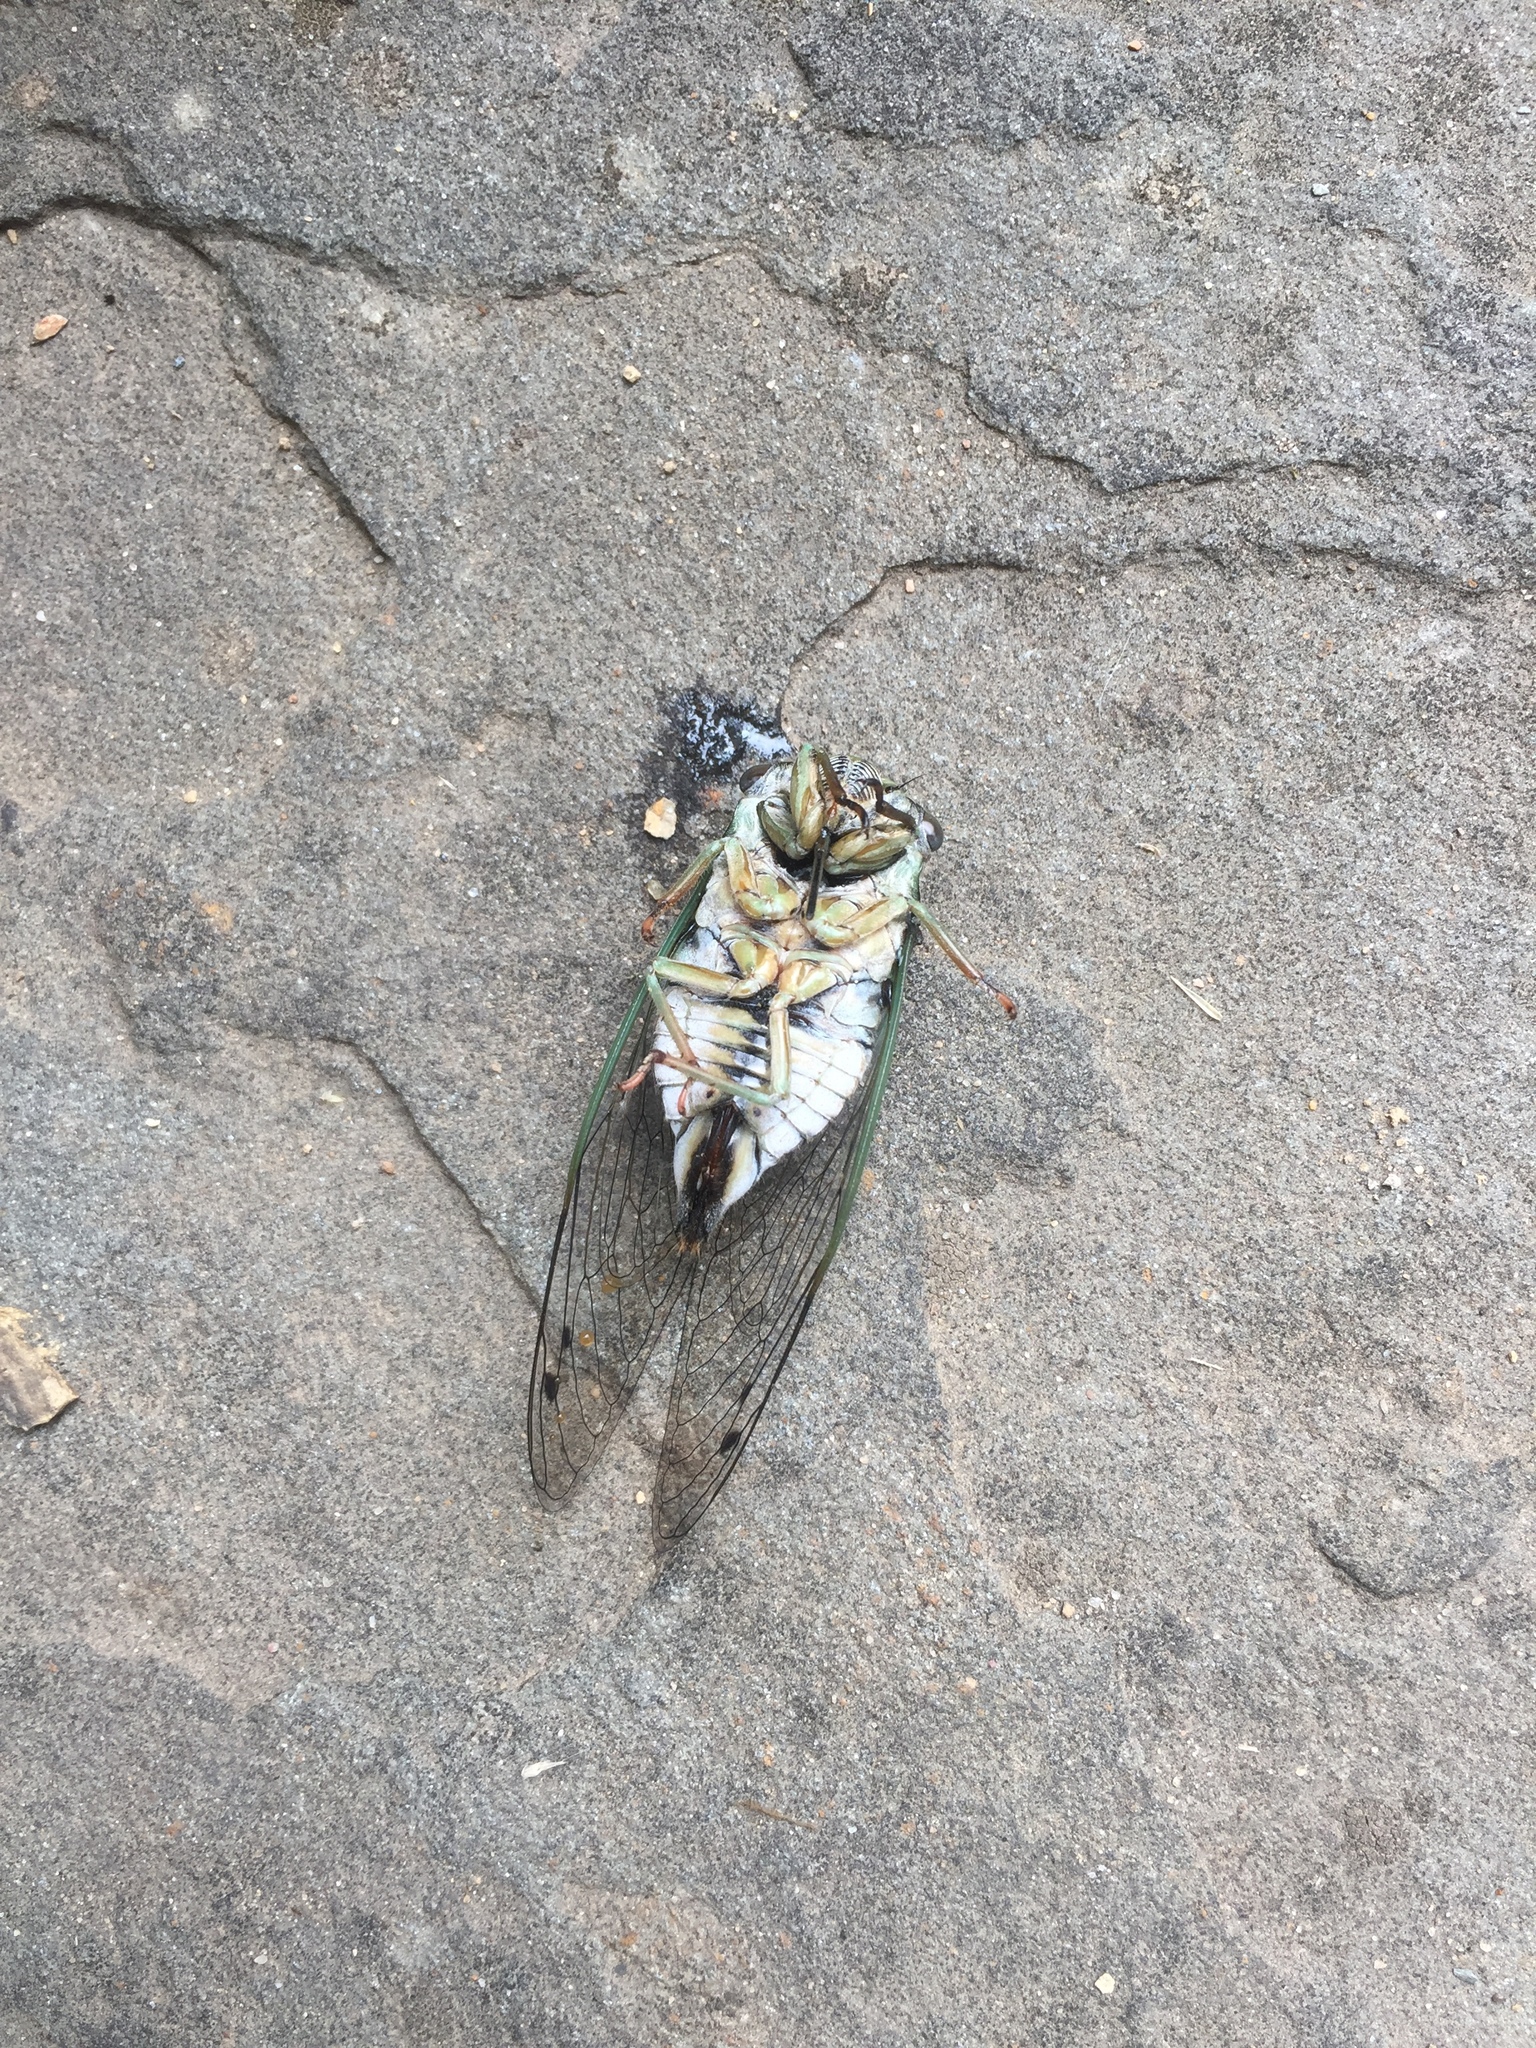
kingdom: Animalia
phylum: Arthropoda
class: Insecta
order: Hemiptera
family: Cicadidae
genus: Neotibicen
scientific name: Neotibicen linnei
